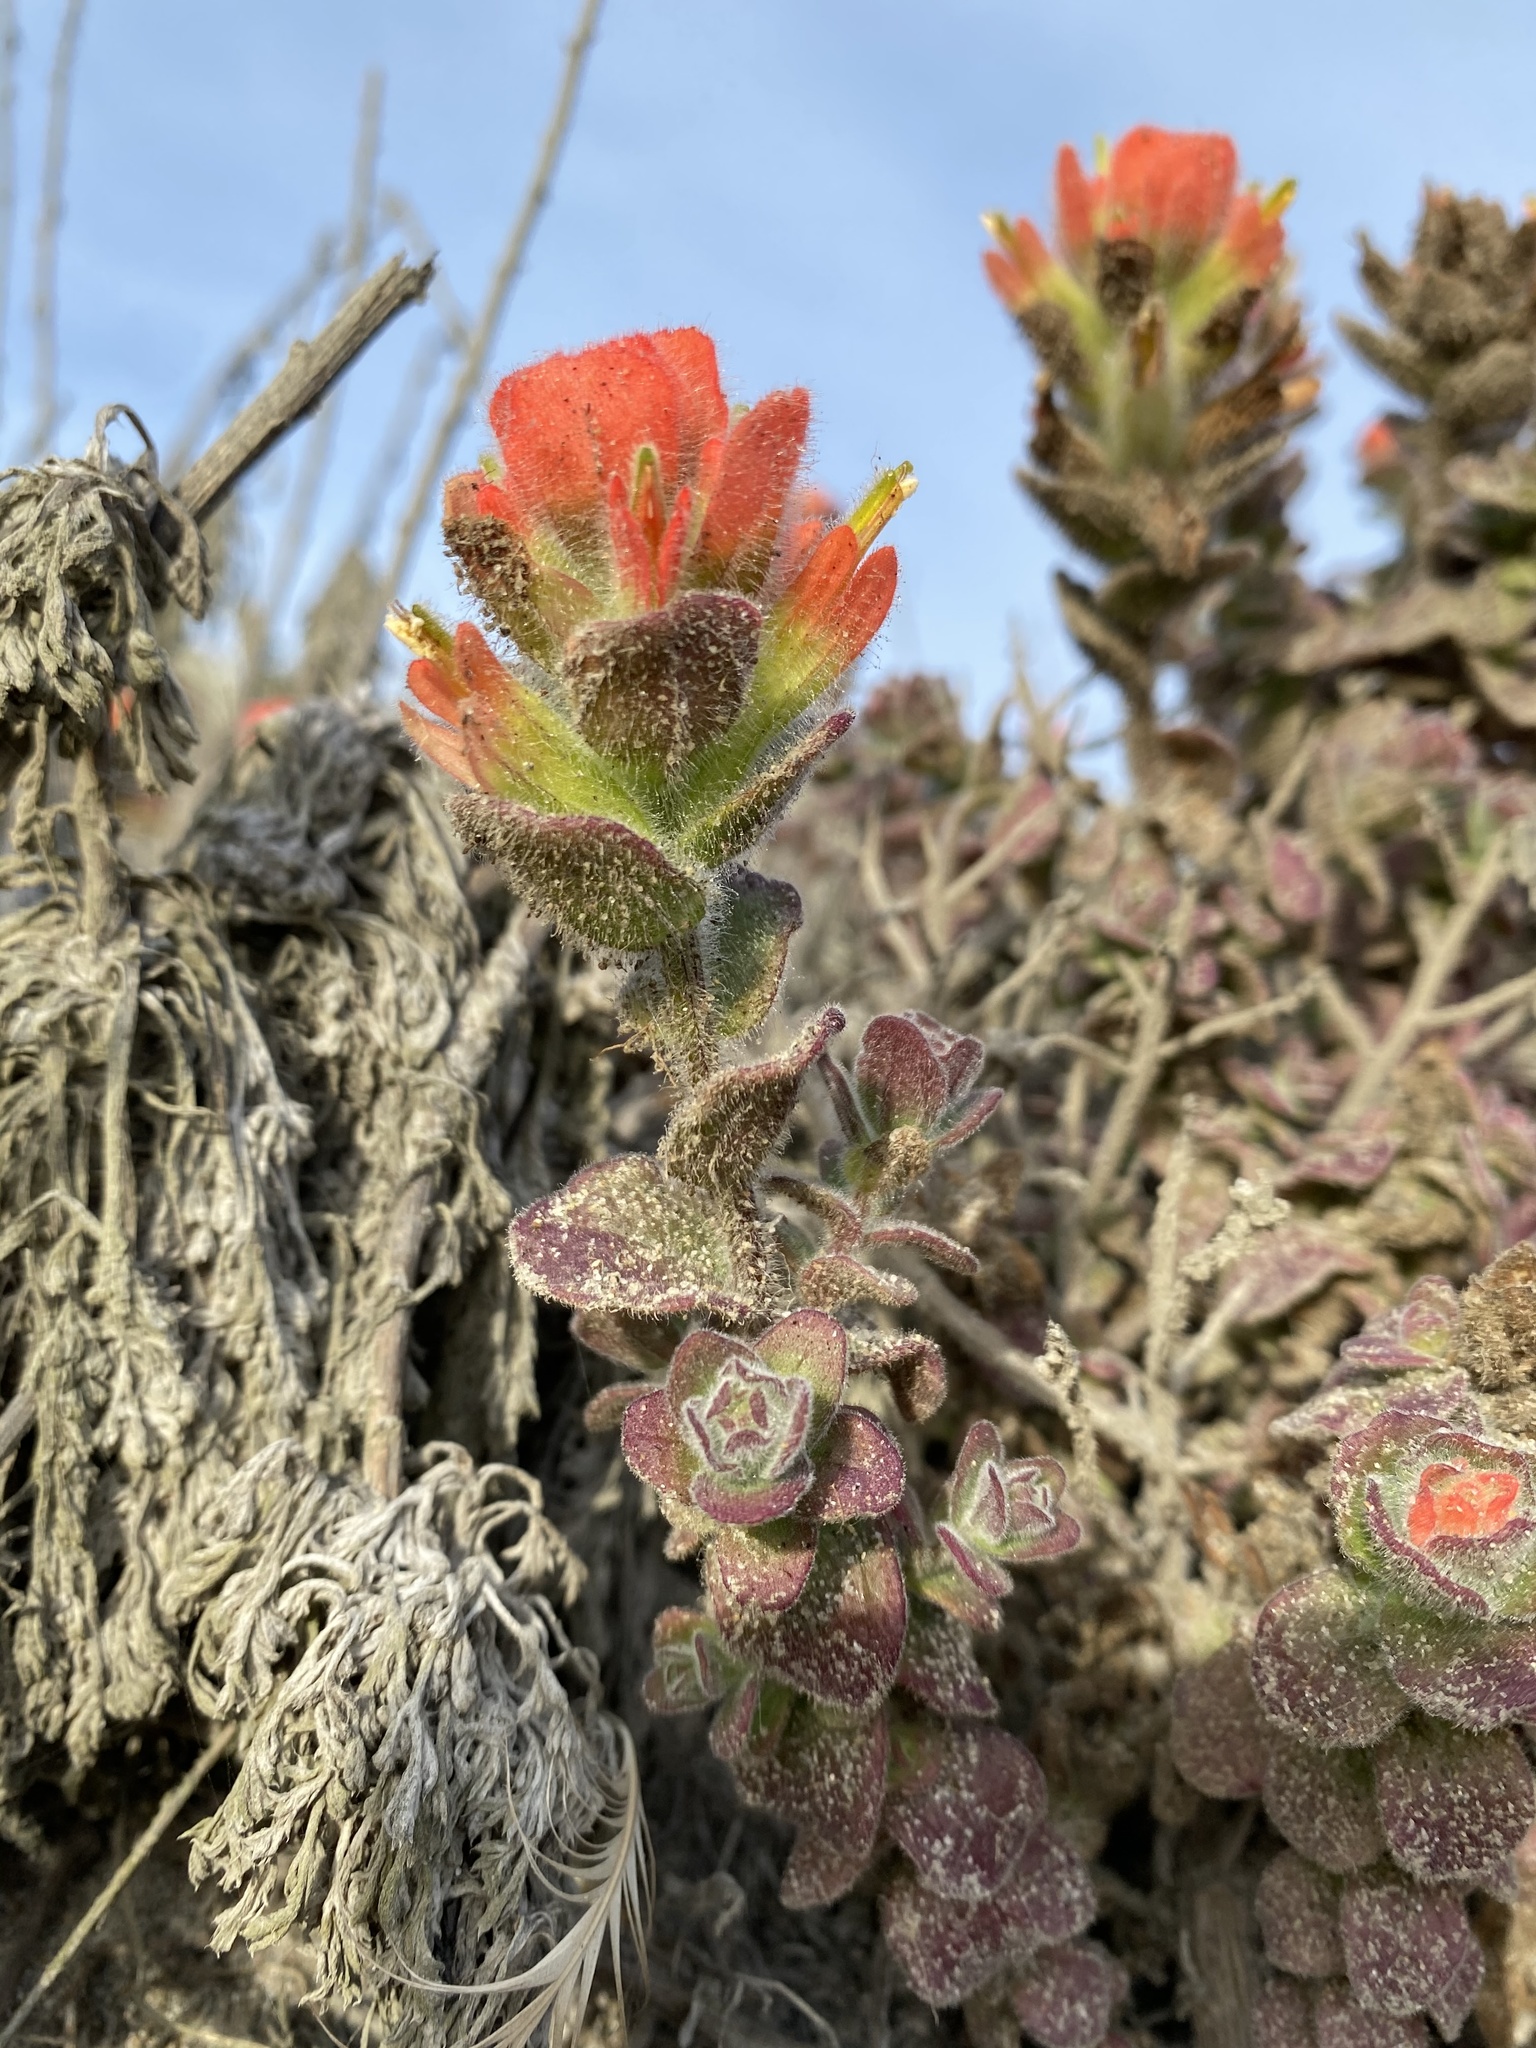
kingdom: Plantae
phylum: Tracheophyta
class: Magnoliopsida
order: Lamiales
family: Orobanchaceae
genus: Castilleja
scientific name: Castilleja latifolia
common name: Monterey indian paintbrush
